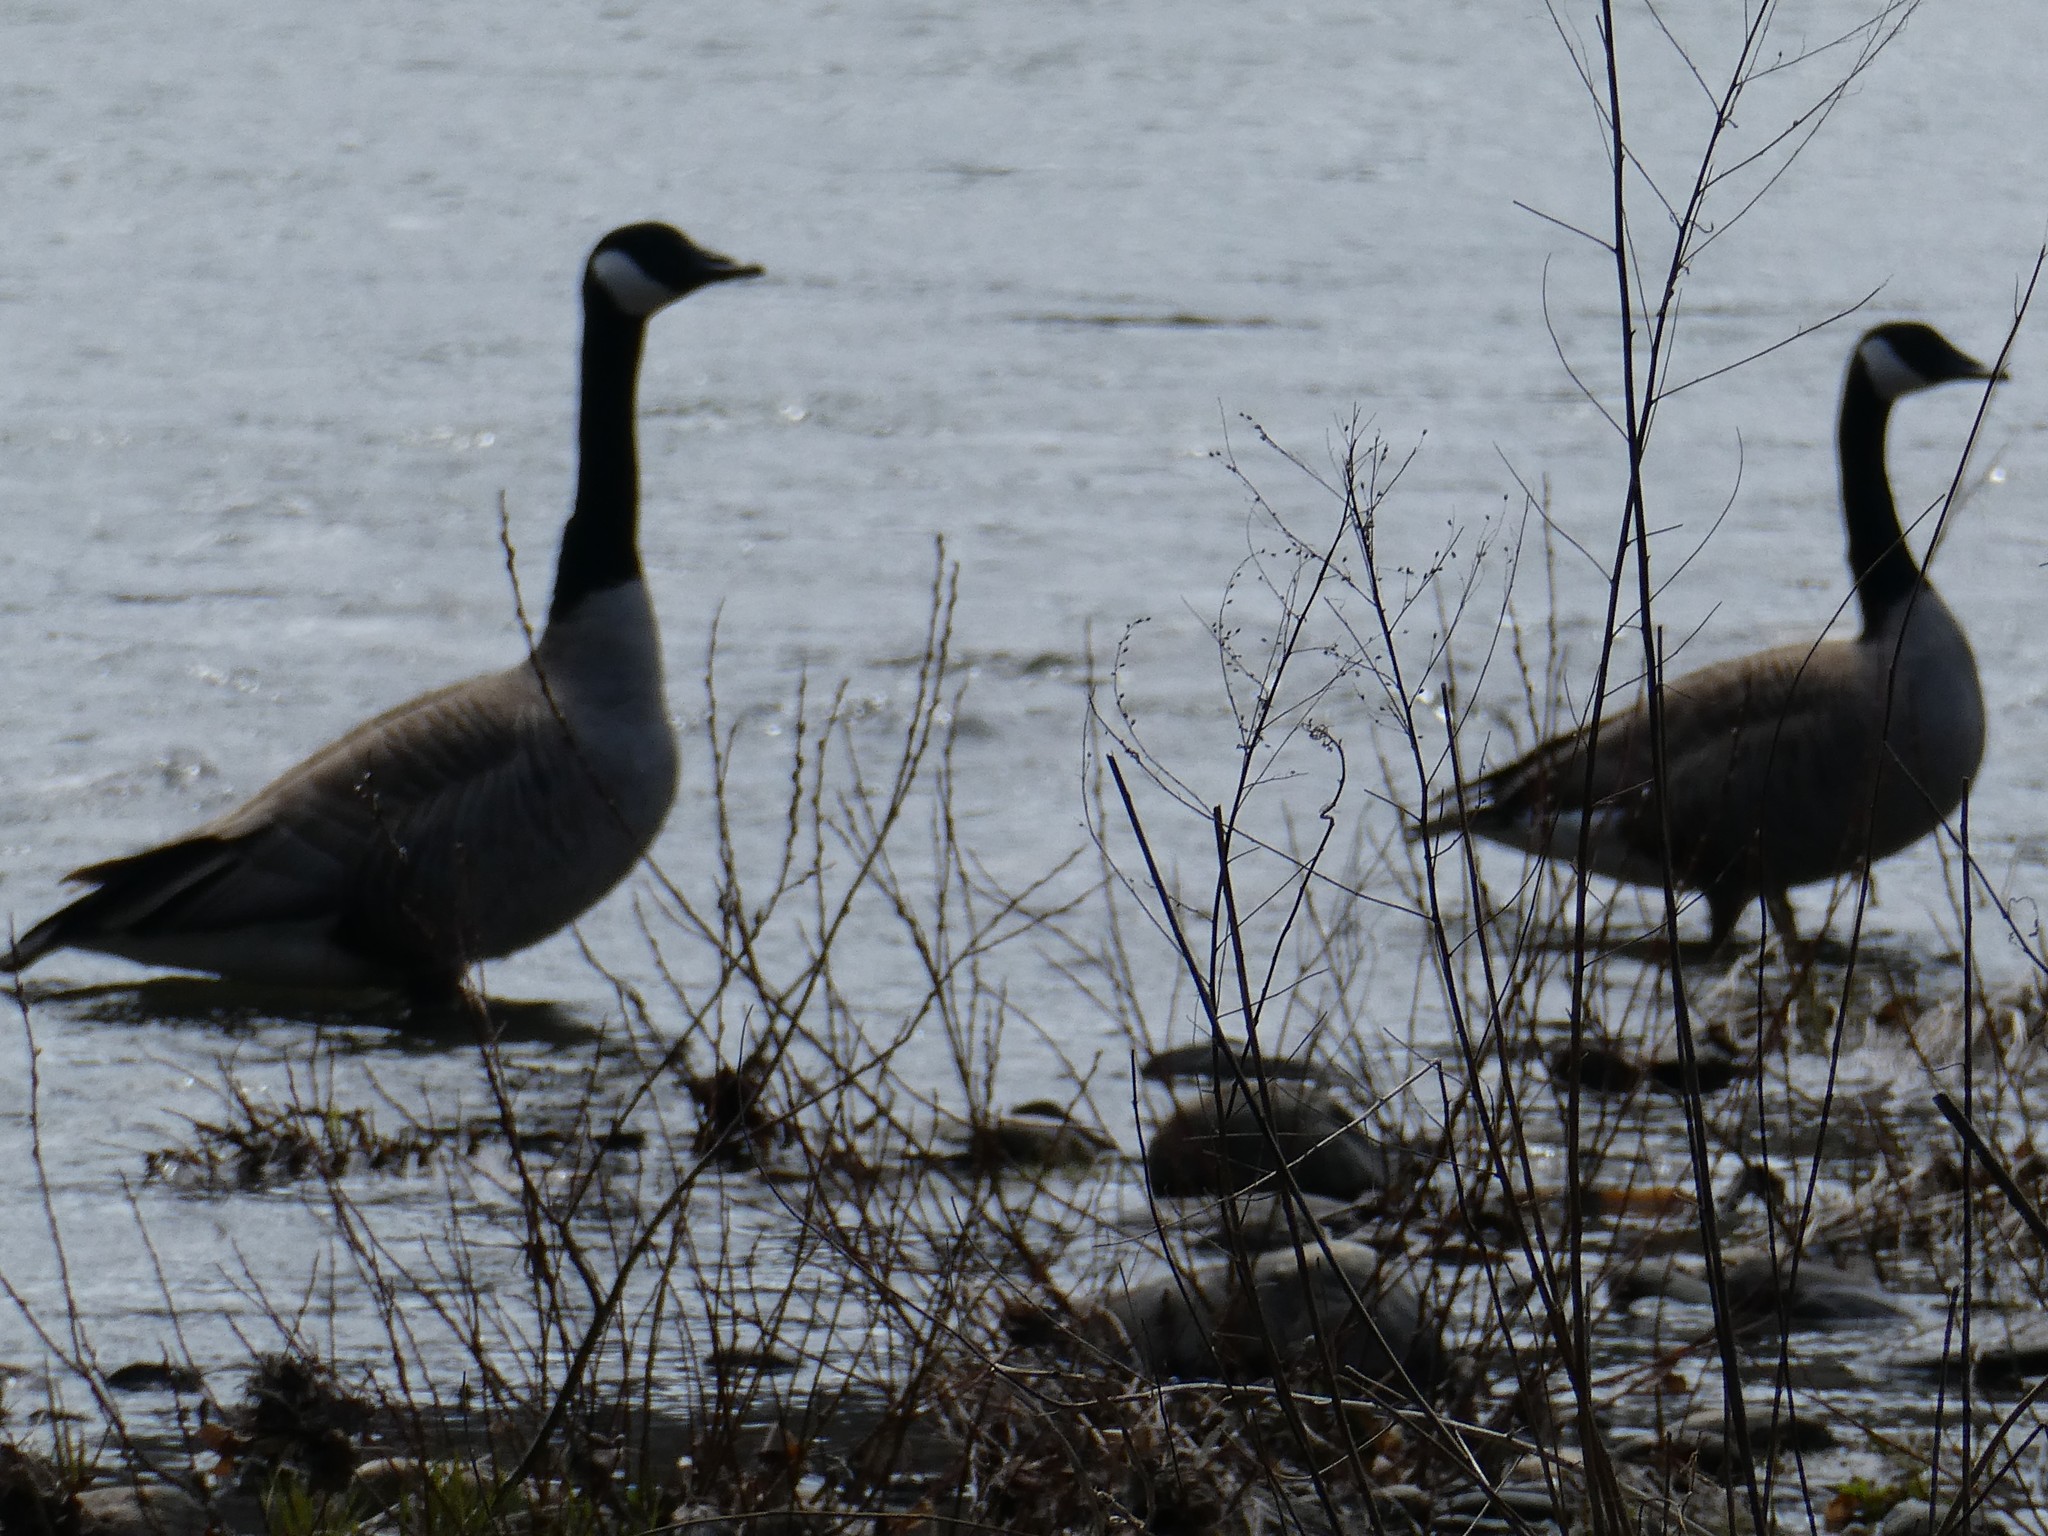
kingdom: Animalia
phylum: Chordata
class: Aves
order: Anseriformes
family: Anatidae
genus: Branta
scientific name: Branta canadensis
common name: Canada goose
